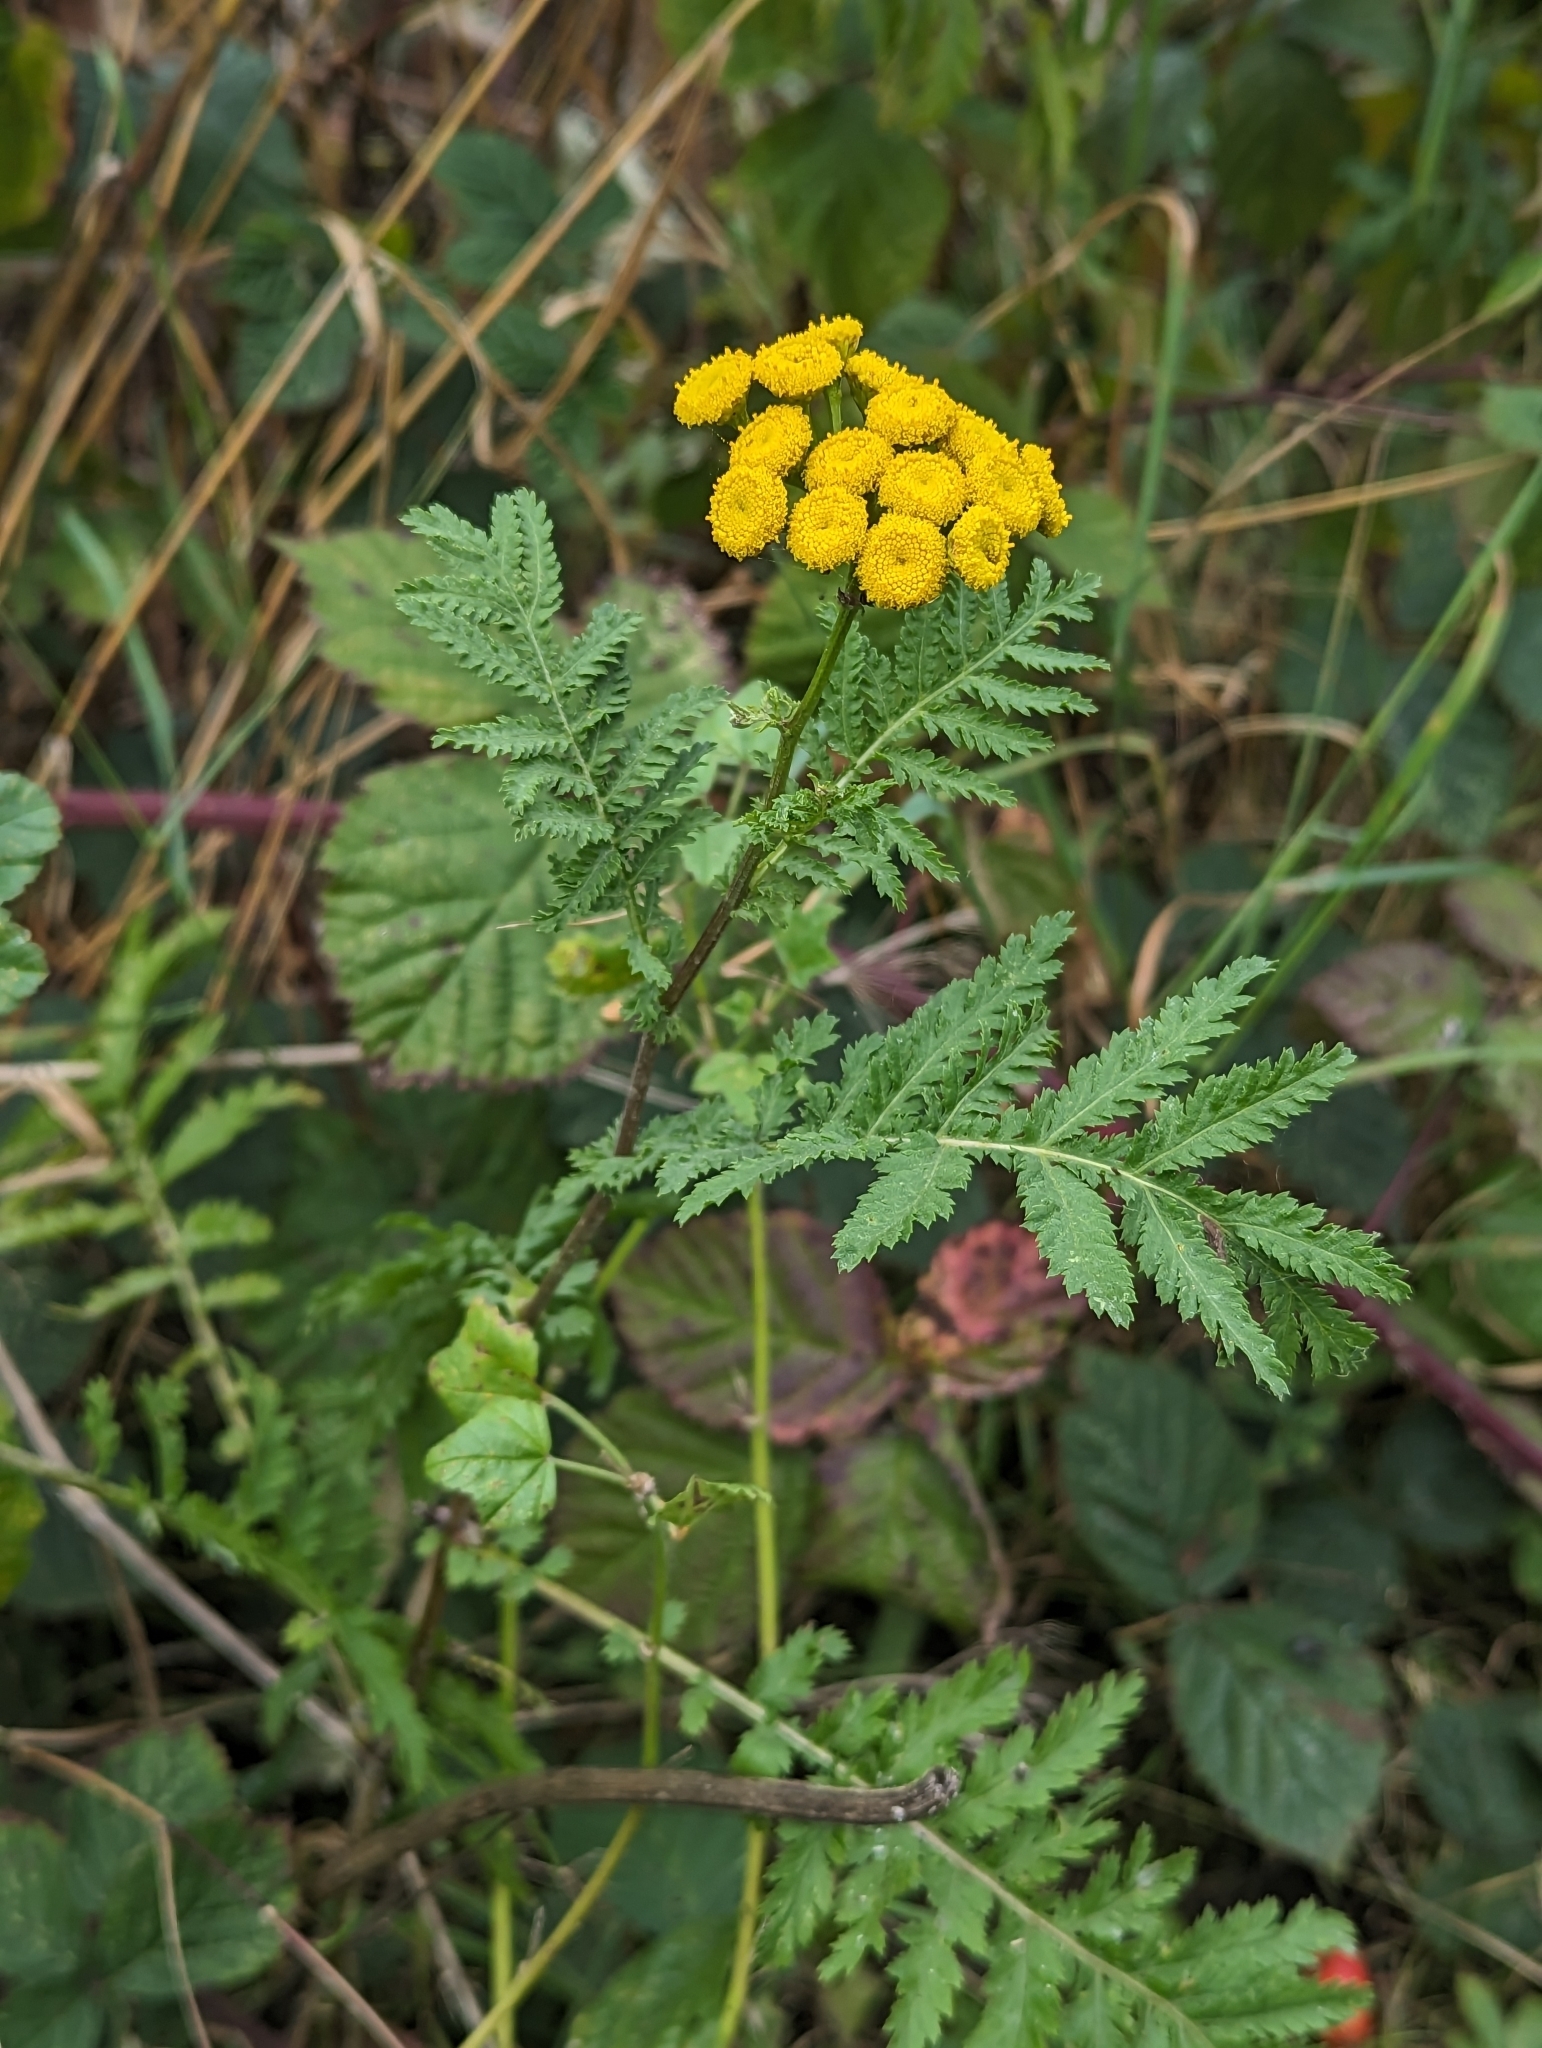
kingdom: Plantae
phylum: Tracheophyta
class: Magnoliopsida
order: Asterales
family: Asteraceae
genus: Tanacetum
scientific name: Tanacetum vulgare
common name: Common tansy
